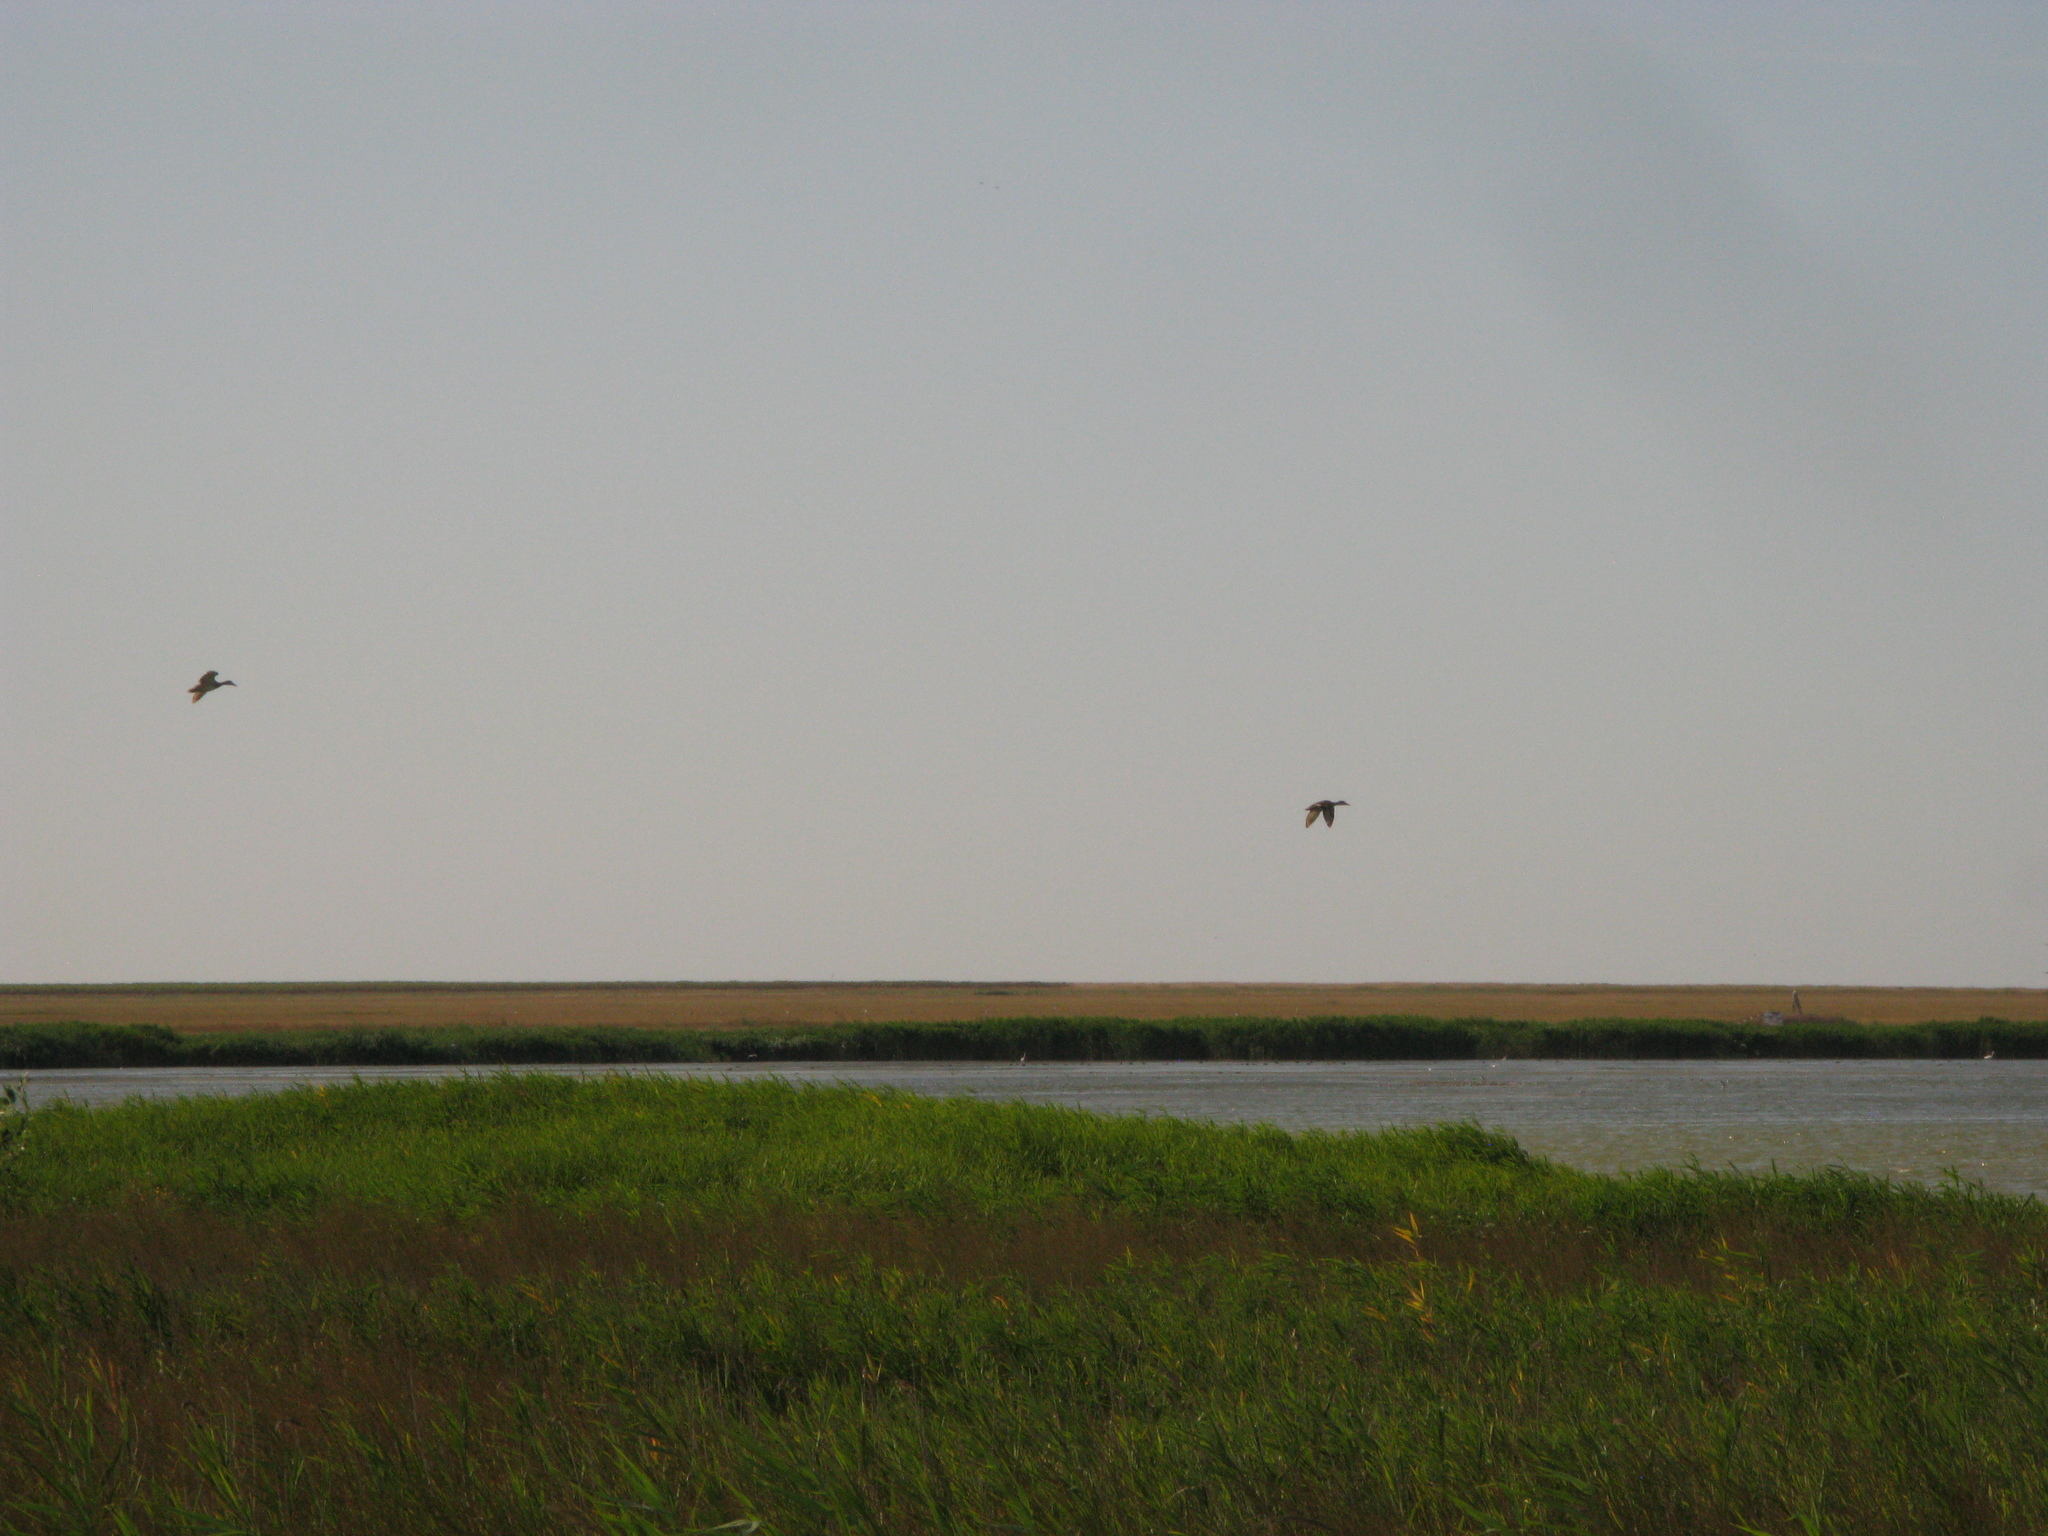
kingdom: Animalia
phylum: Chordata
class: Aves
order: Anseriformes
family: Anatidae
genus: Mareca
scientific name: Mareca strepera
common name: Gadwall
